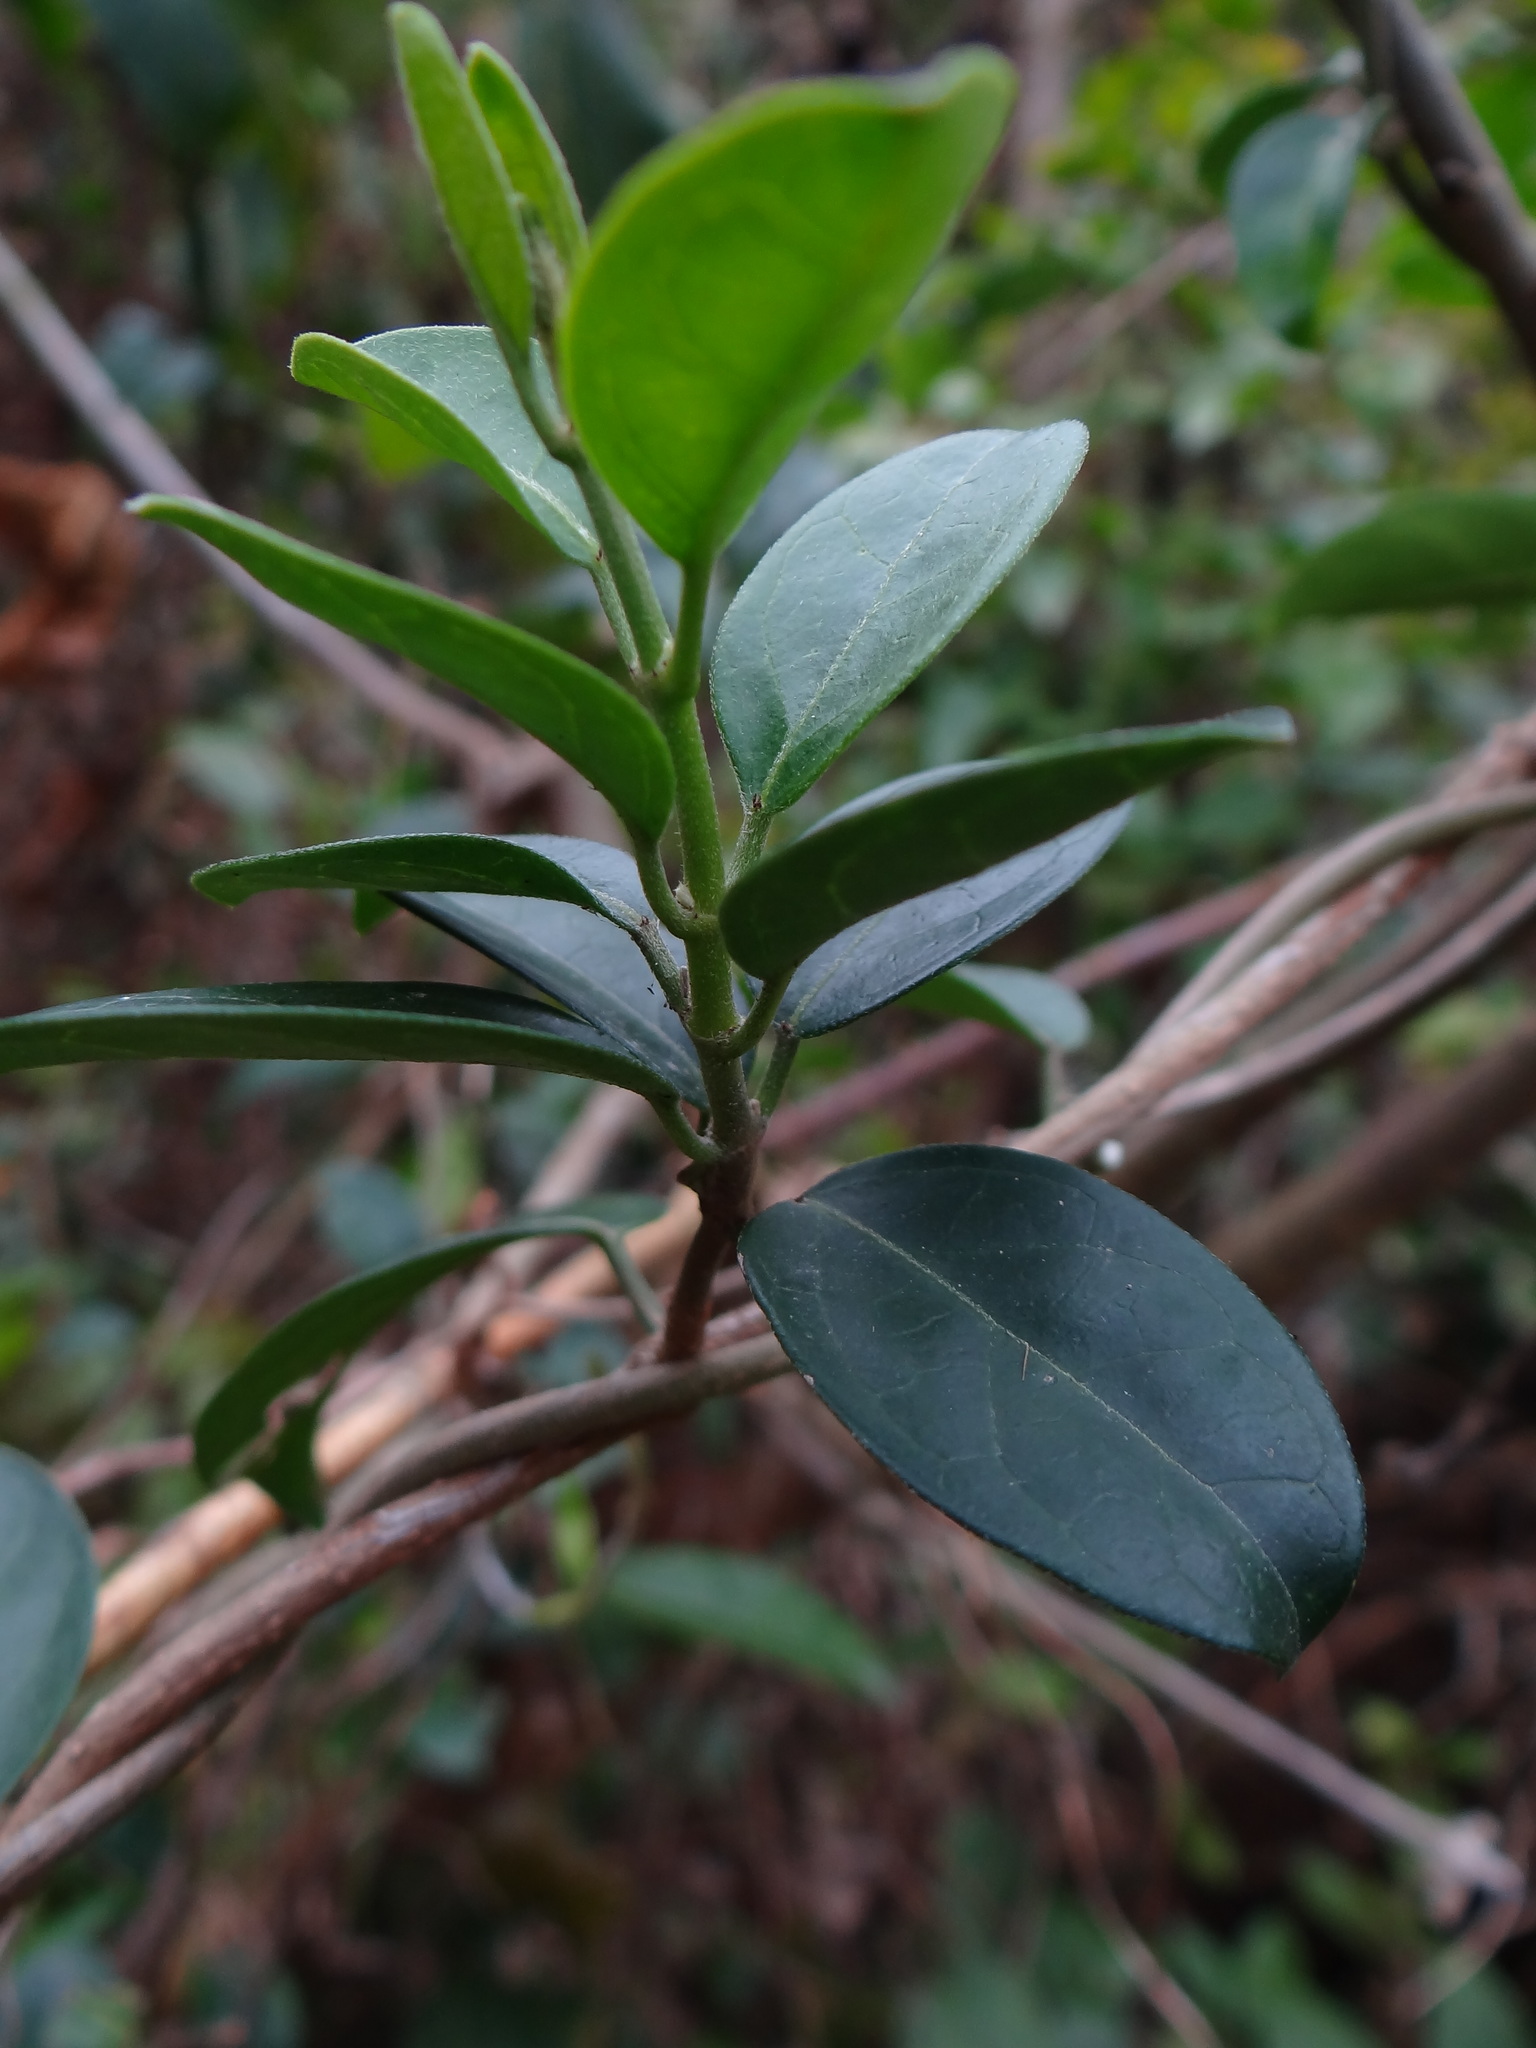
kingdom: Plantae
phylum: Tracheophyta
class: Magnoliopsida
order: Gentianales
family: Apocynaceae
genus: Gymnema
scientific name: Gymnema sylvestre
